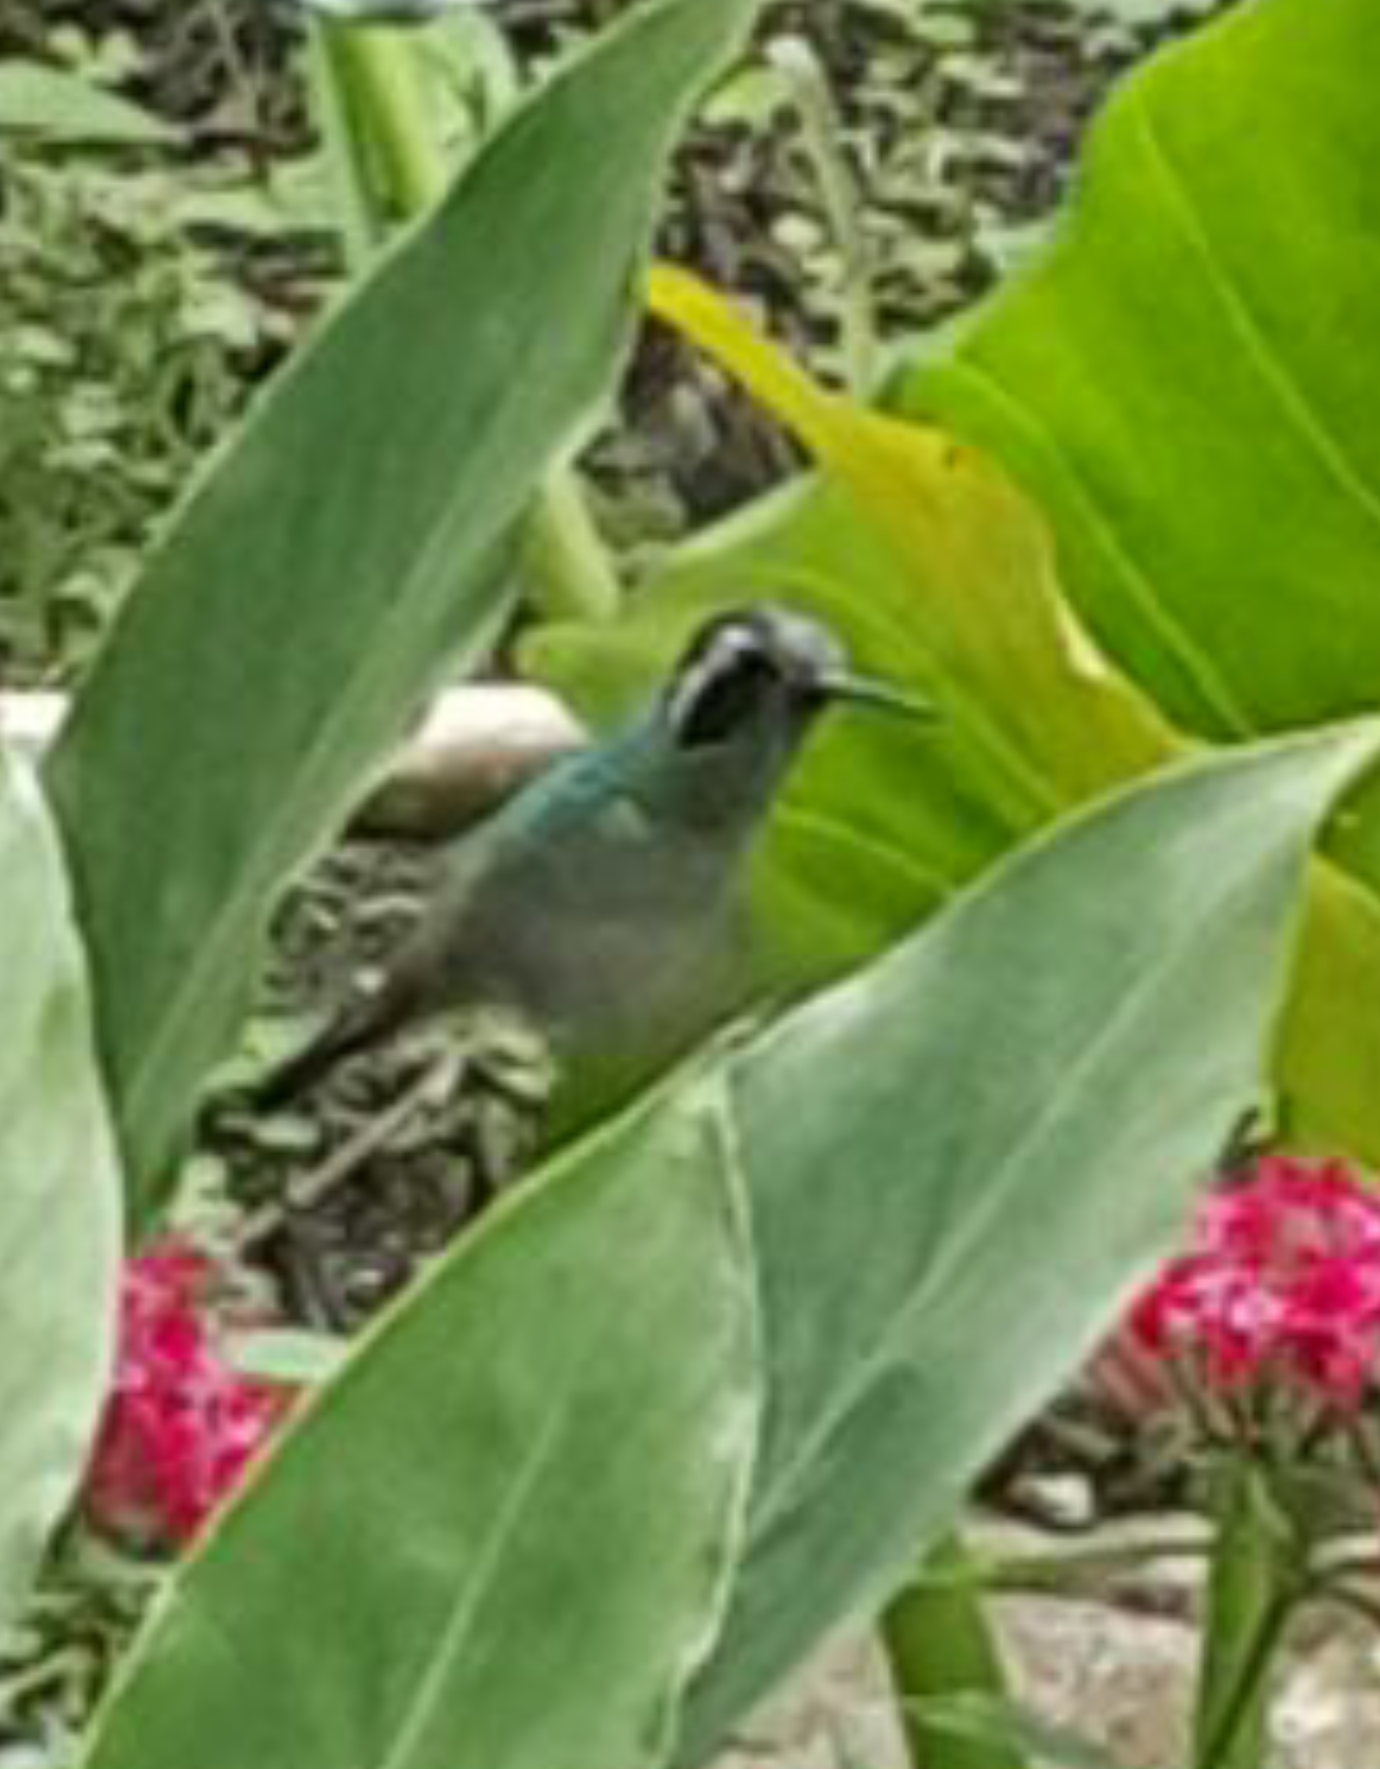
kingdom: Animalia
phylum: Chordata
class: Aves
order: Apodiformes
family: Trochilidae
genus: Basilinna
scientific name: Basilinna leucotis
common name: White-eared hummingbird
